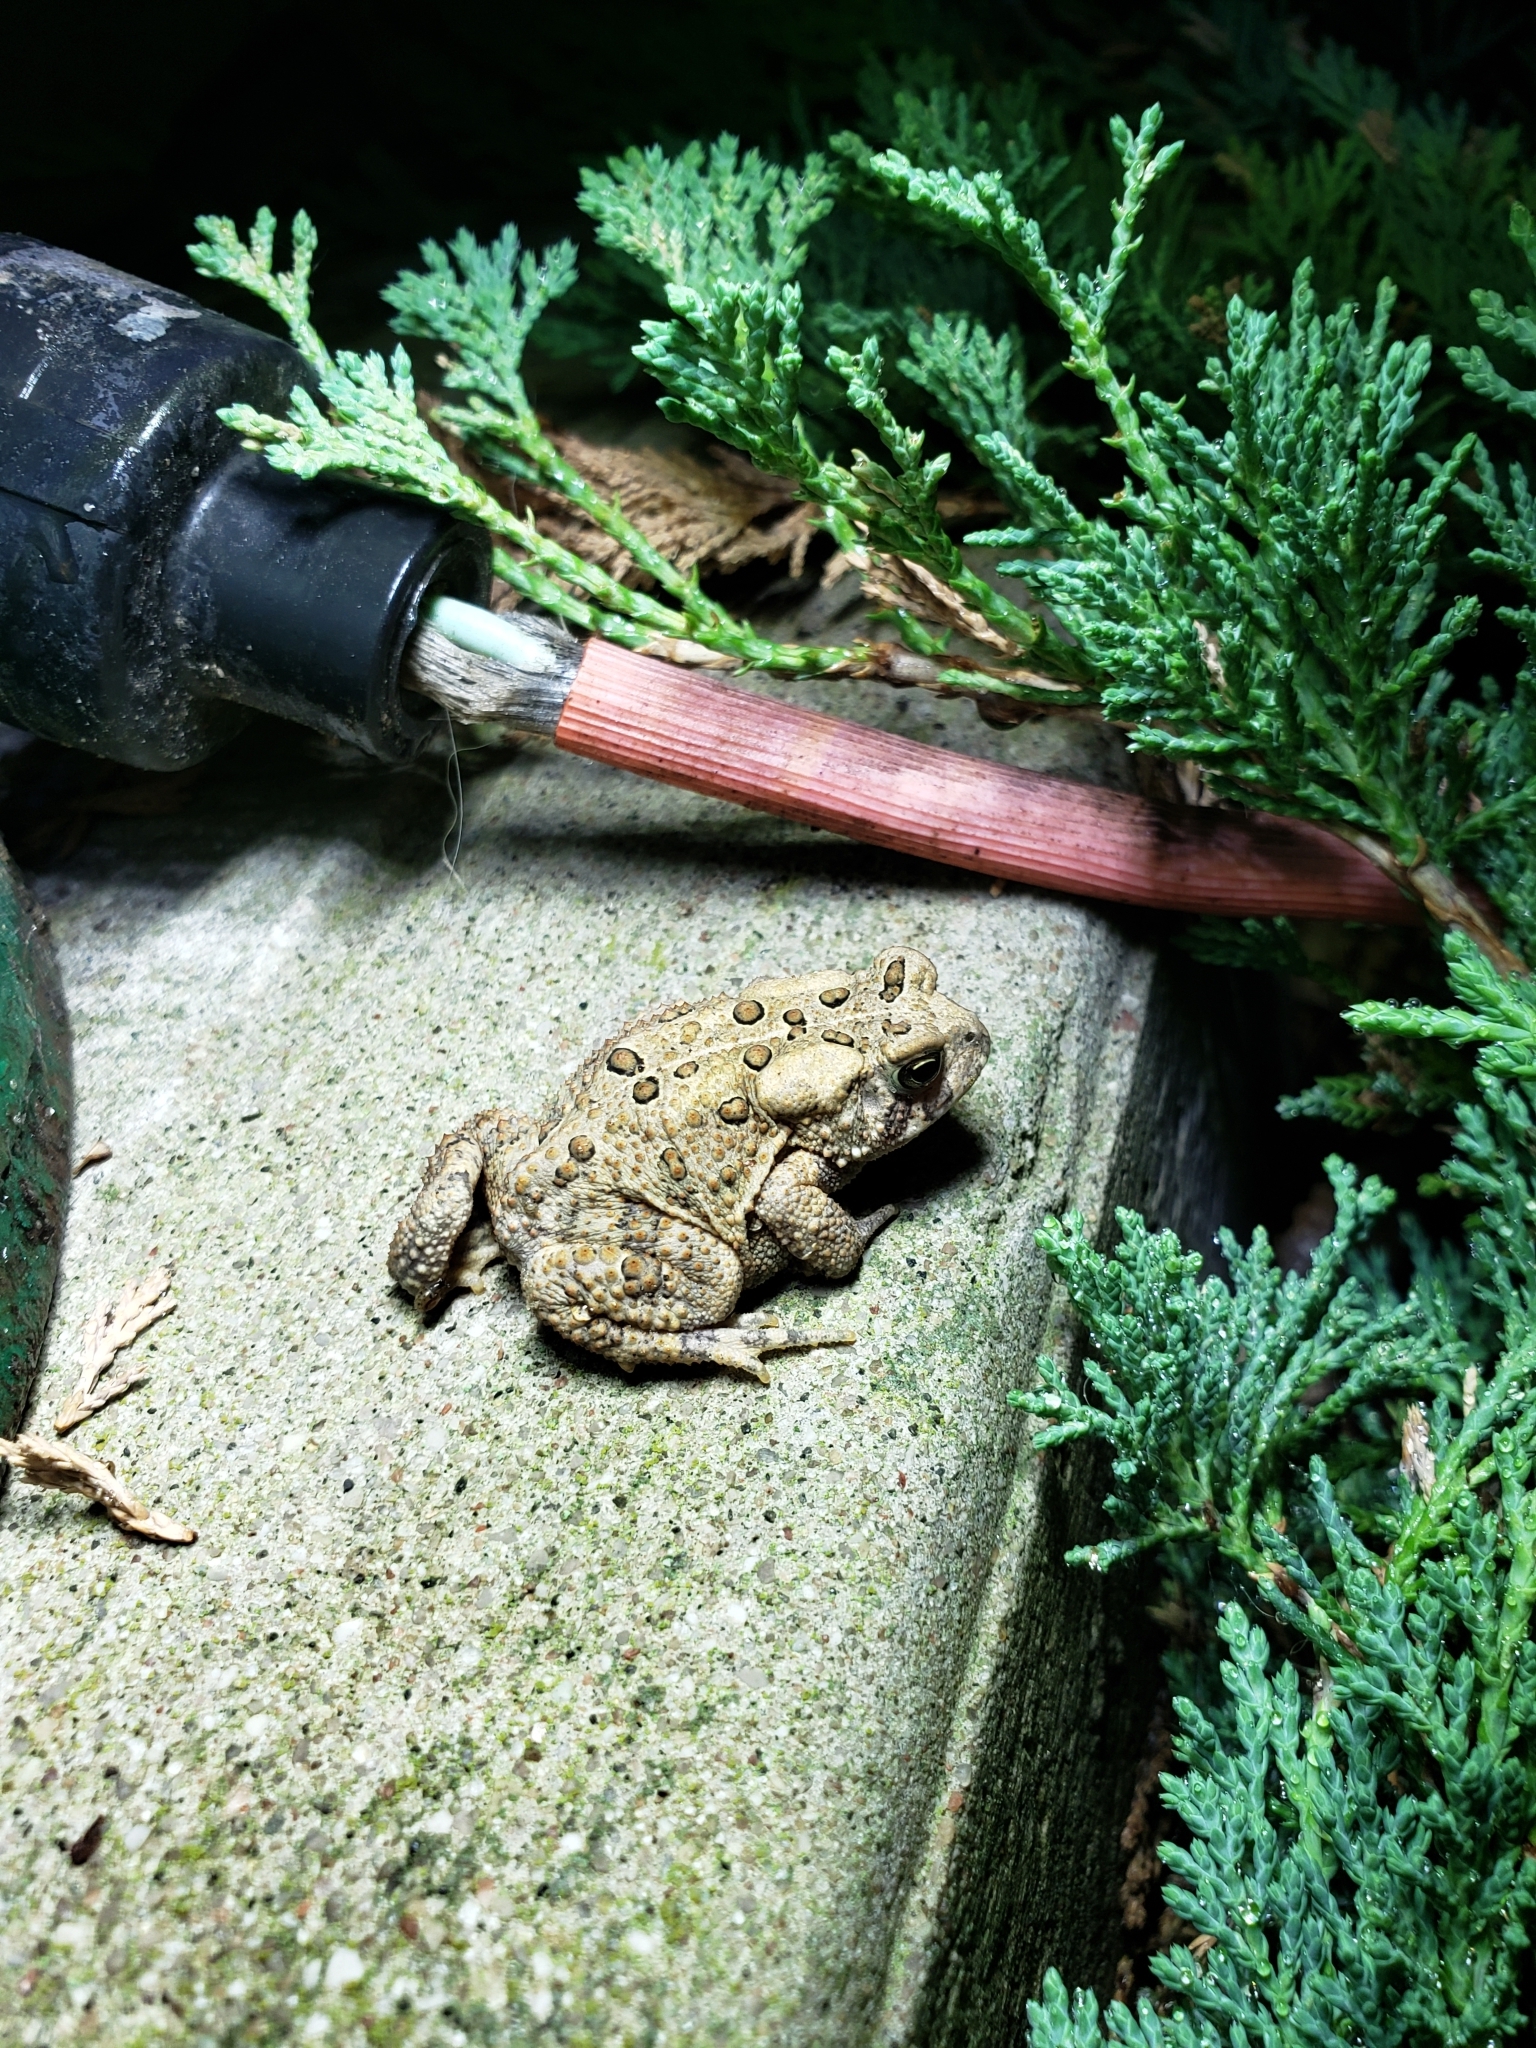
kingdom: Animalia
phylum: Chordata
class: Amphibia
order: Anura
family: Bufonidae
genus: Anaxyrus
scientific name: Anaxyrus americanus
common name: American toad
